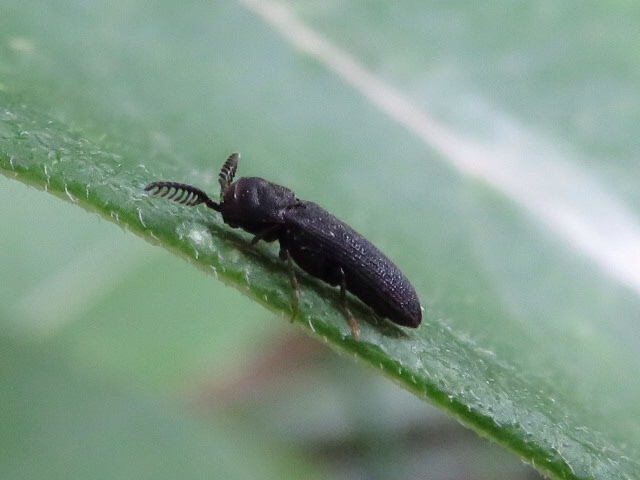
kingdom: Animalia
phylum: Arthropoda
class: Insecta
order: Coleoptera
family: Eucnemidae
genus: Sarpedon
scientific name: Sarpedon scabrosus
